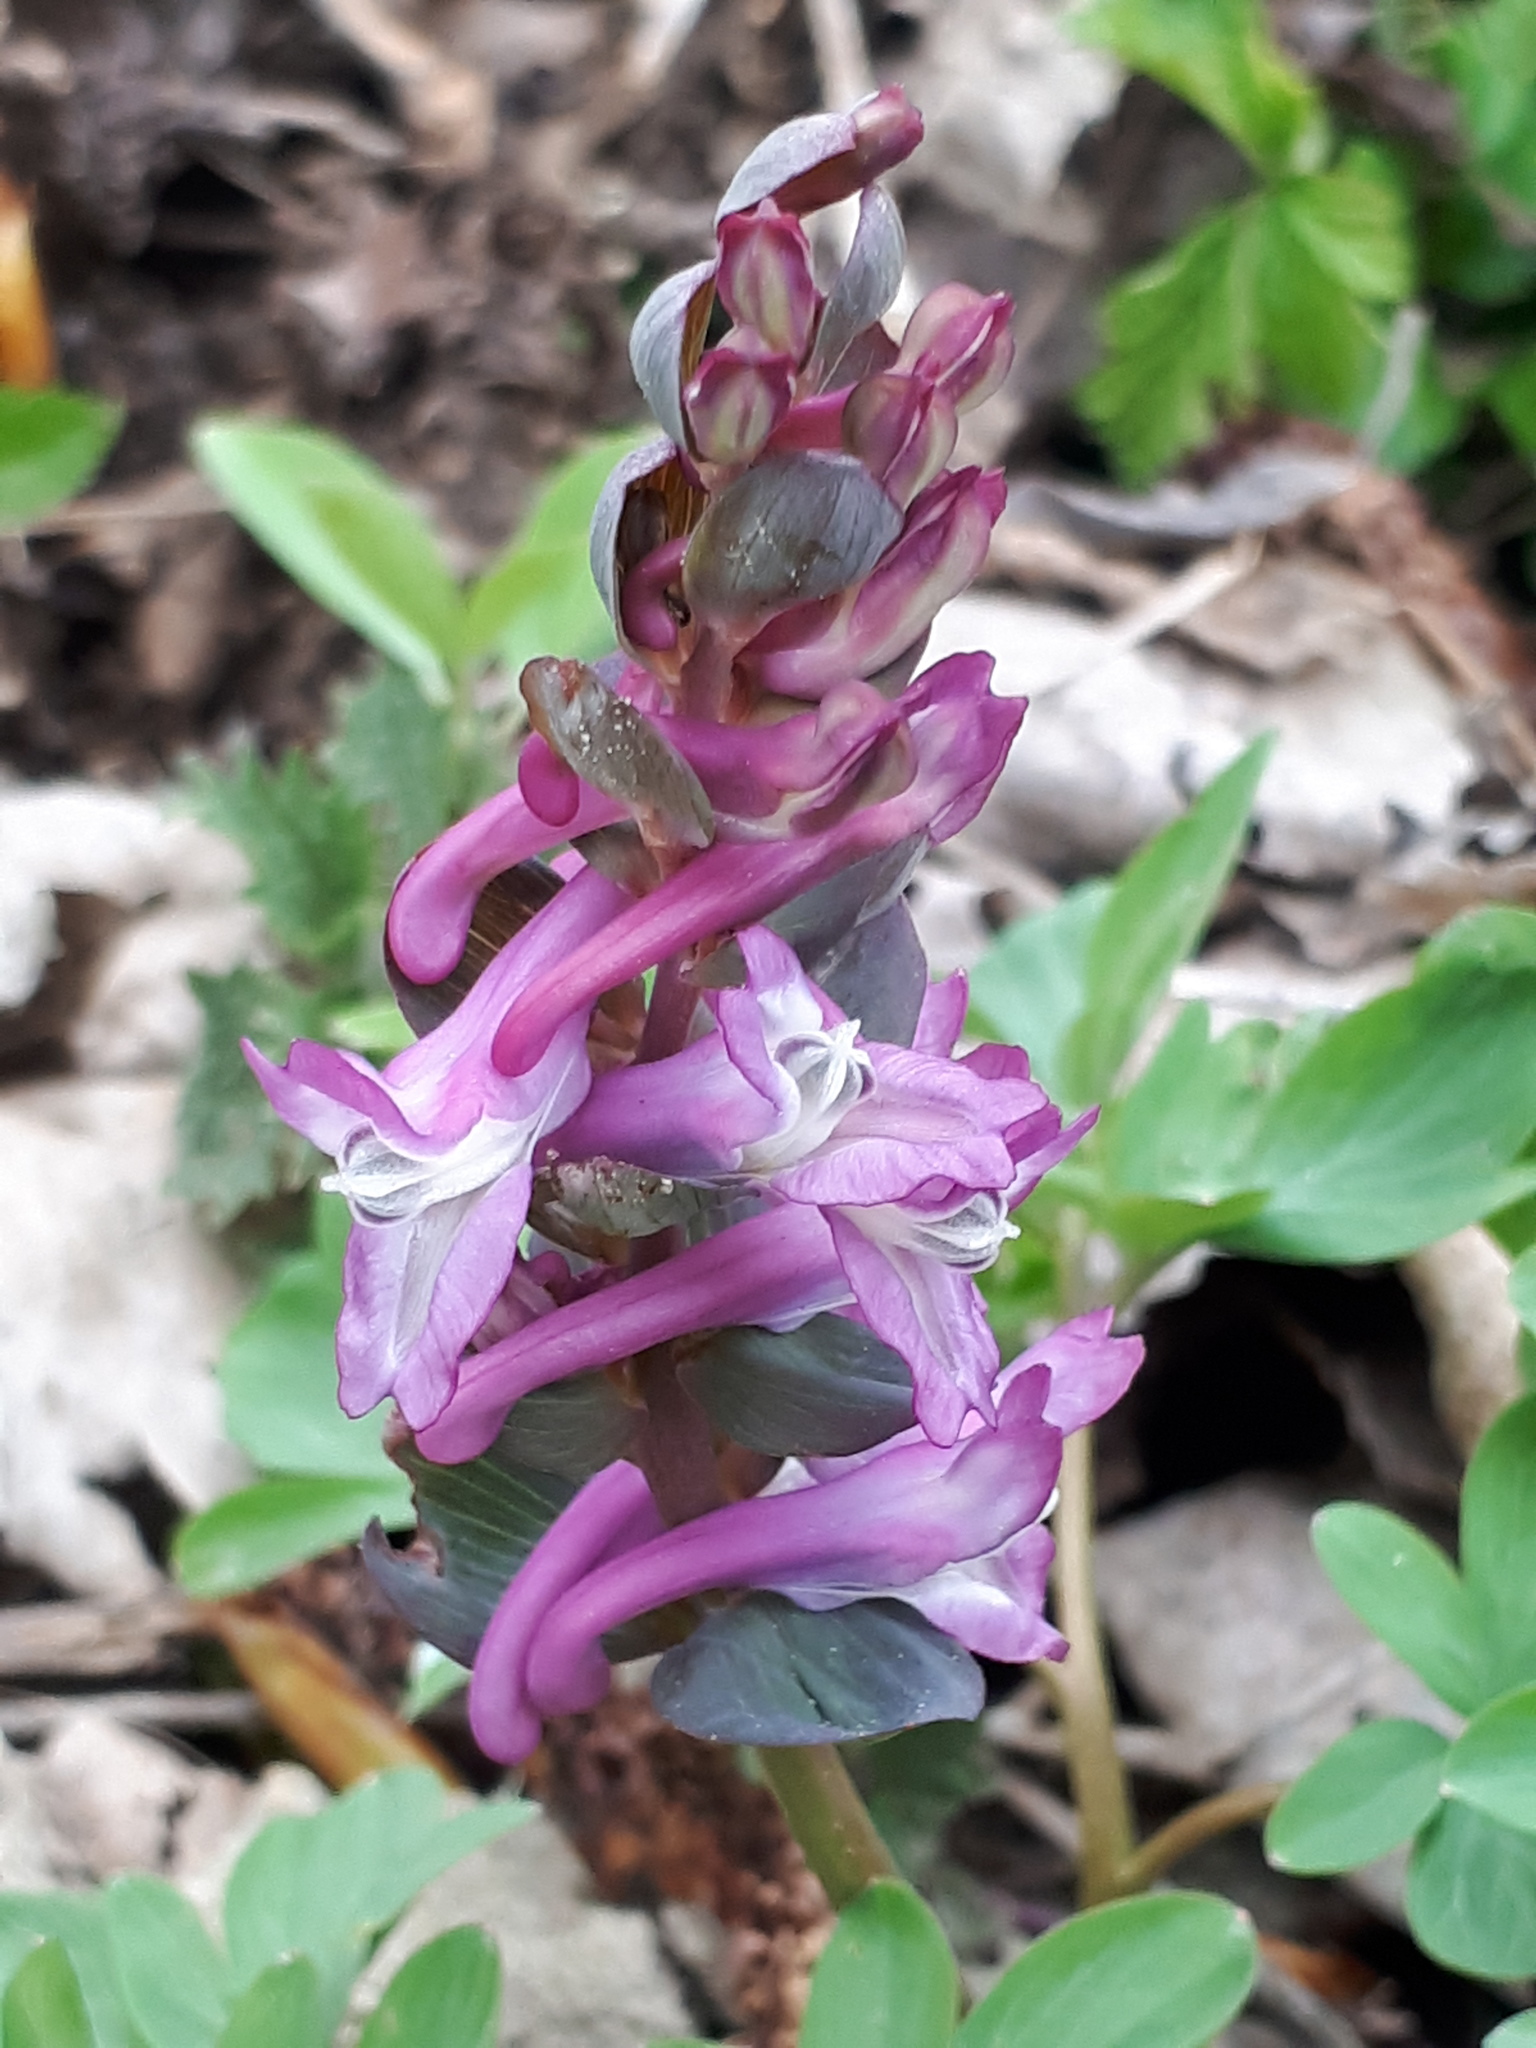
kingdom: Plantae
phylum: Tracheophyta
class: Magnoliopsida
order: Ranunculales
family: Papaveraceae
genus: Corydalis
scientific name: Corydalis cava
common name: Hollowroot
